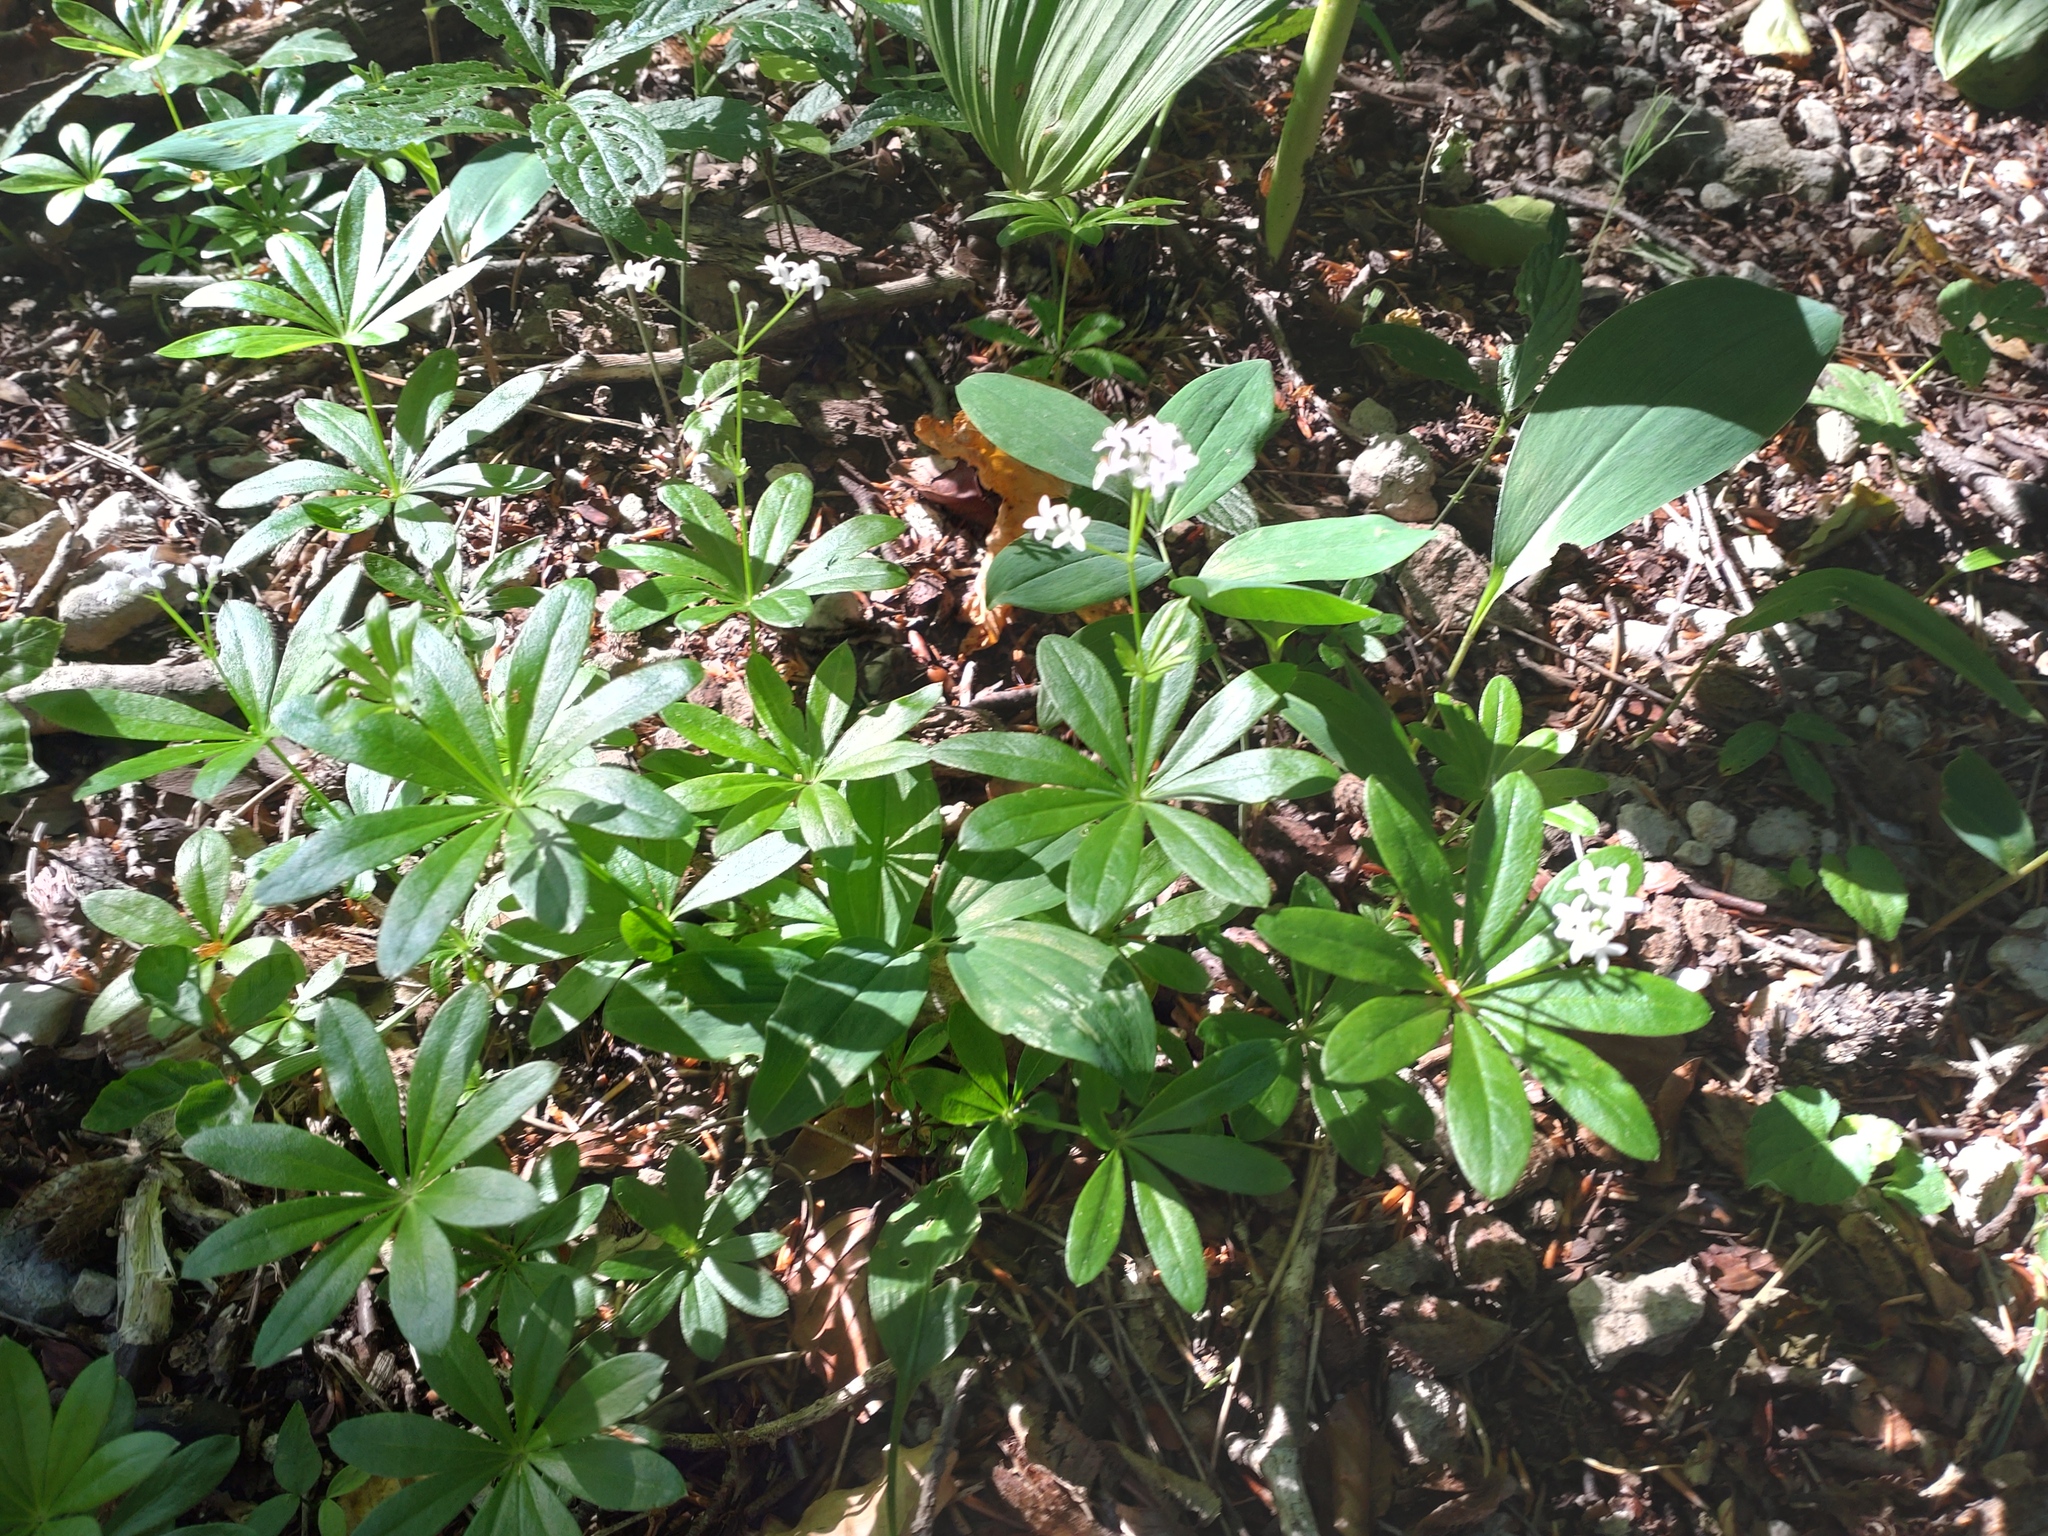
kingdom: Plantae
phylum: Tracheophyta
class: Magnoliopsida
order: Gentianales
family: Rubiaceae
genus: Galium
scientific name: Galium odoratum
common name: Sweet woodruff
